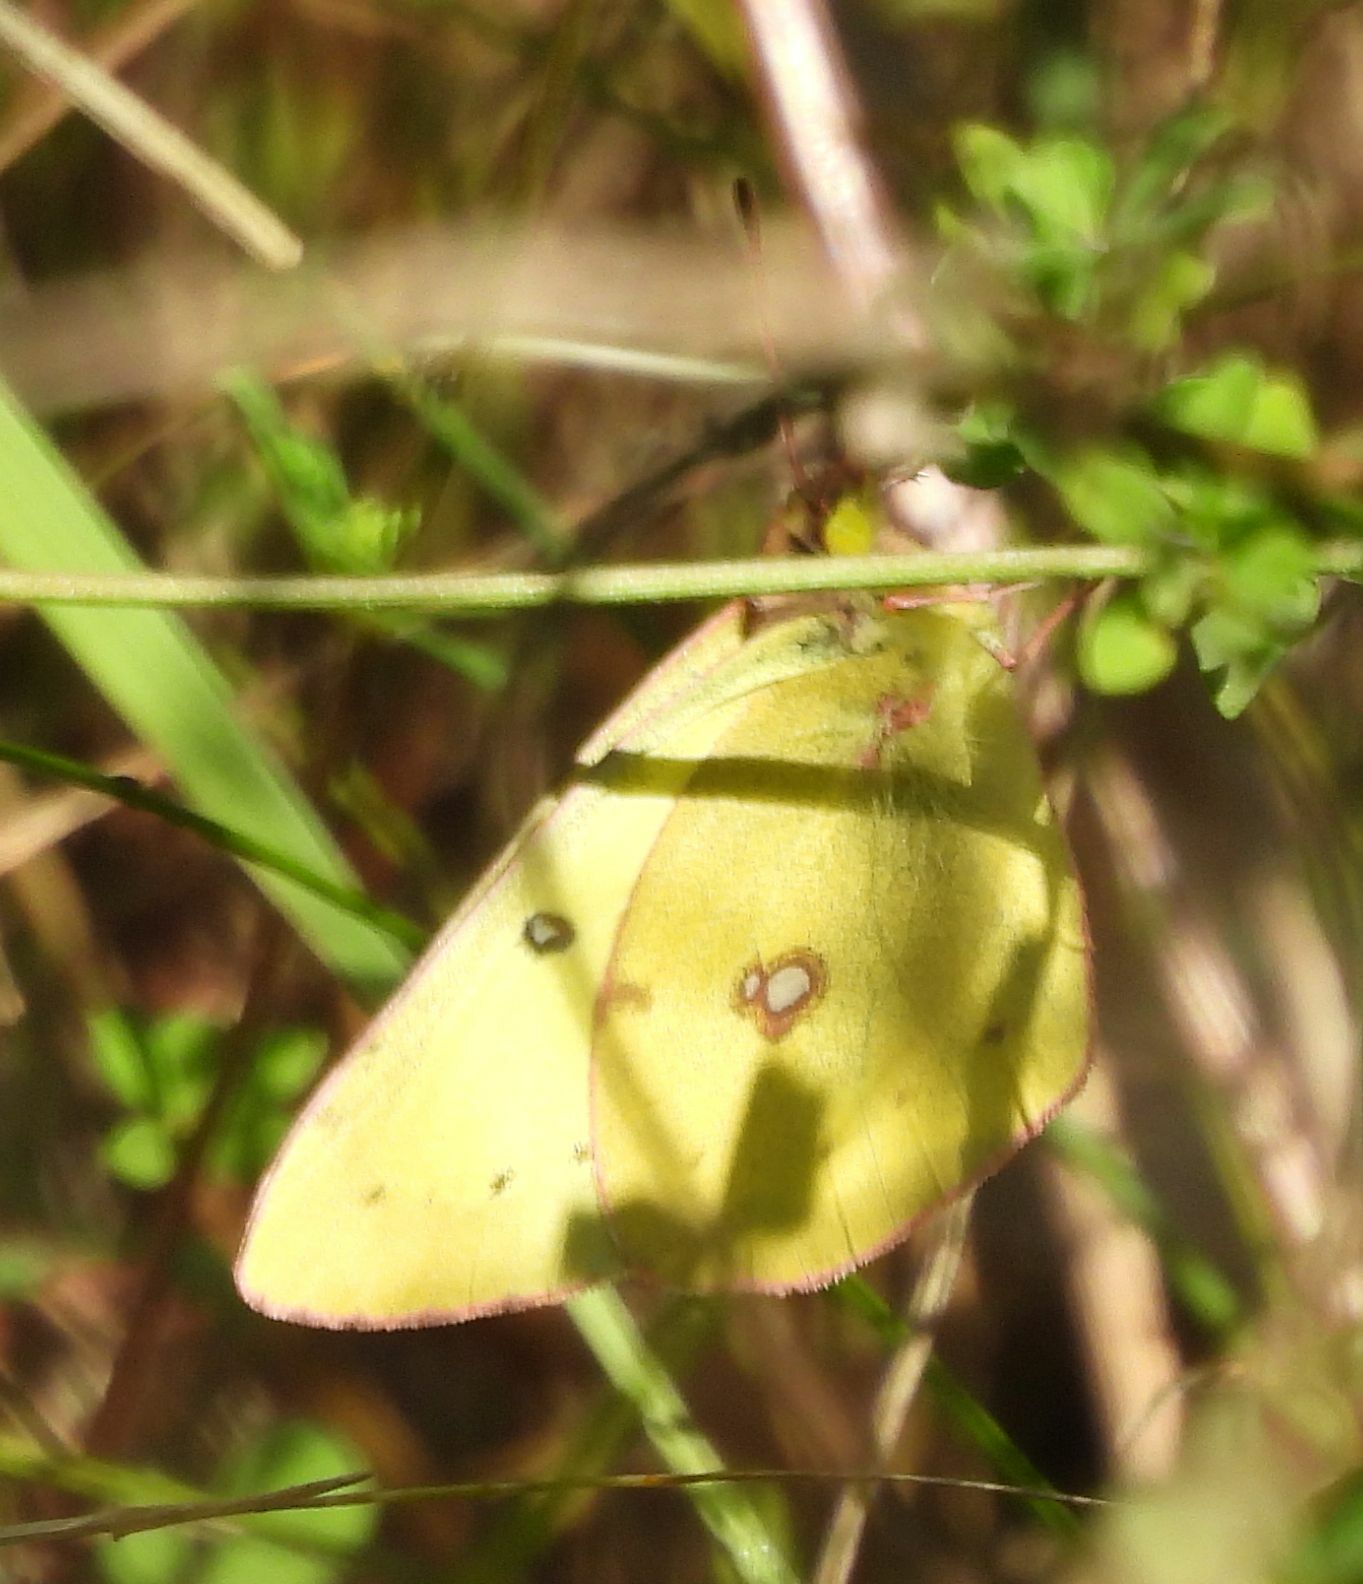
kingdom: Animalia
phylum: Arthropoda
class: Insecta
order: Lepidoptera
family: Pieridae
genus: Colias
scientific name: Colias philodice
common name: Clouded sulphur
